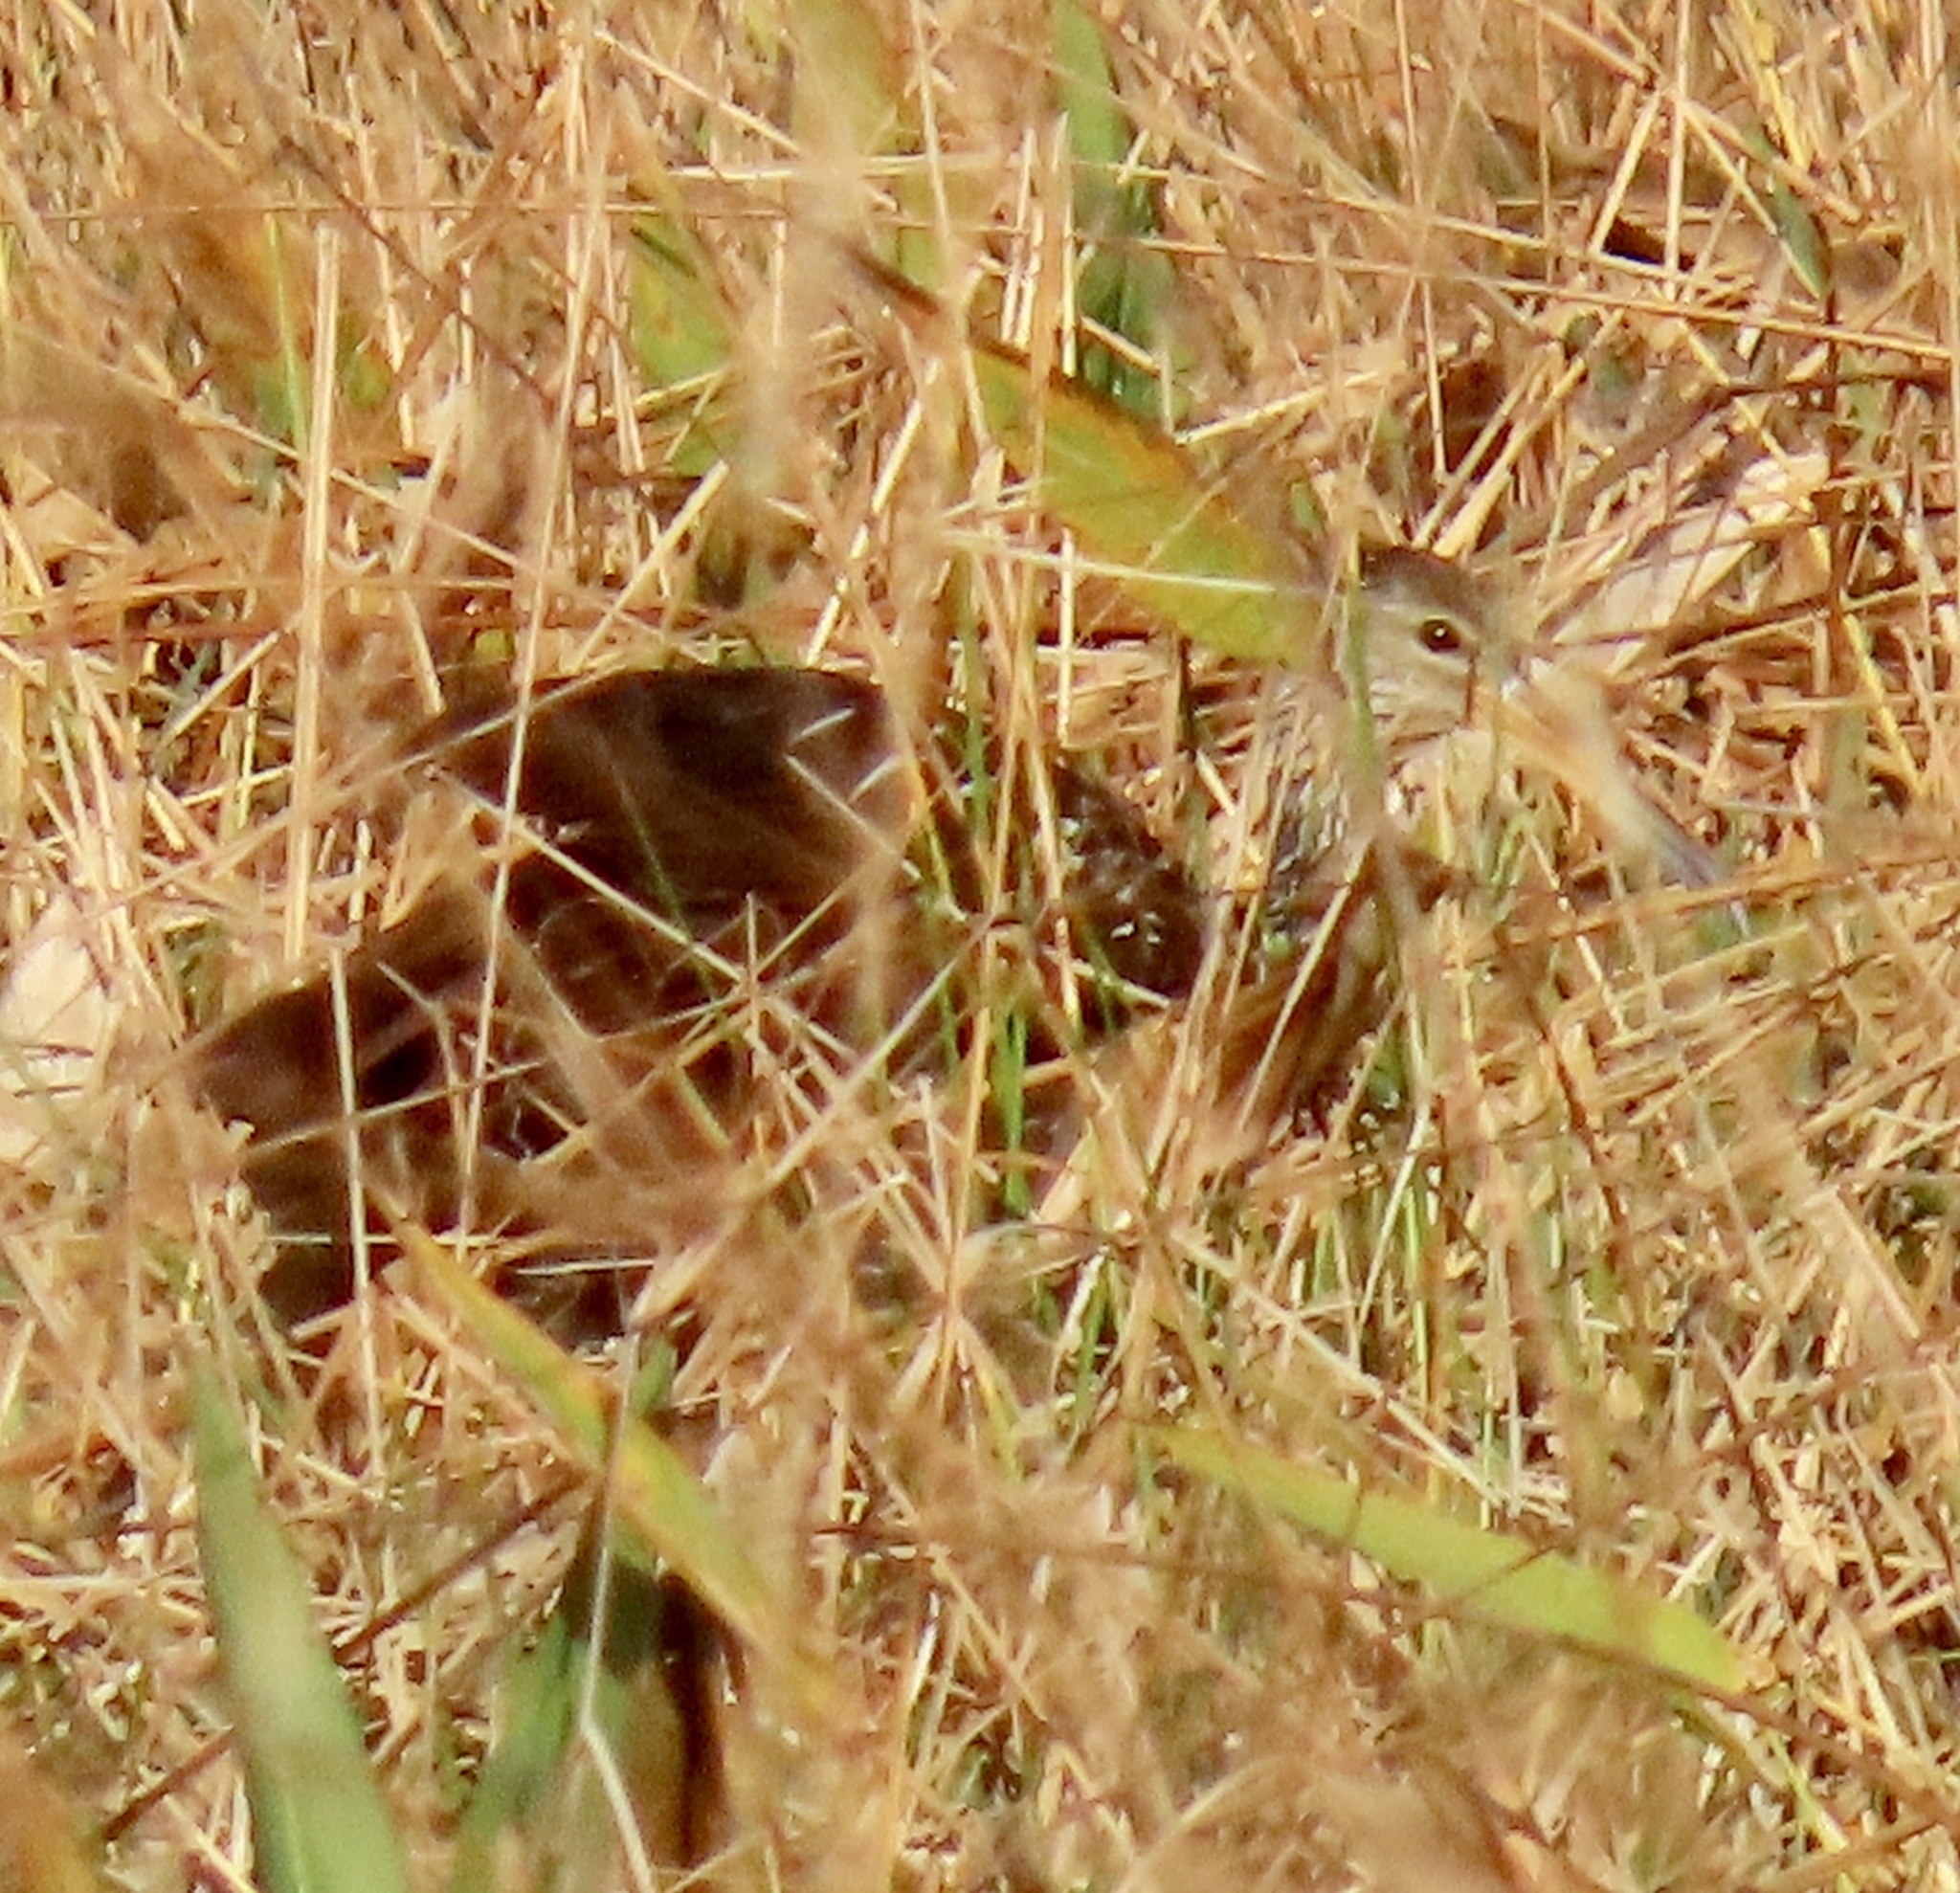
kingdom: Animalia
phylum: Chordata
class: Aves
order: Gruiformes
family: Aramidae
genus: Aramus
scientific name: Aramus guarauna
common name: Limpkin
